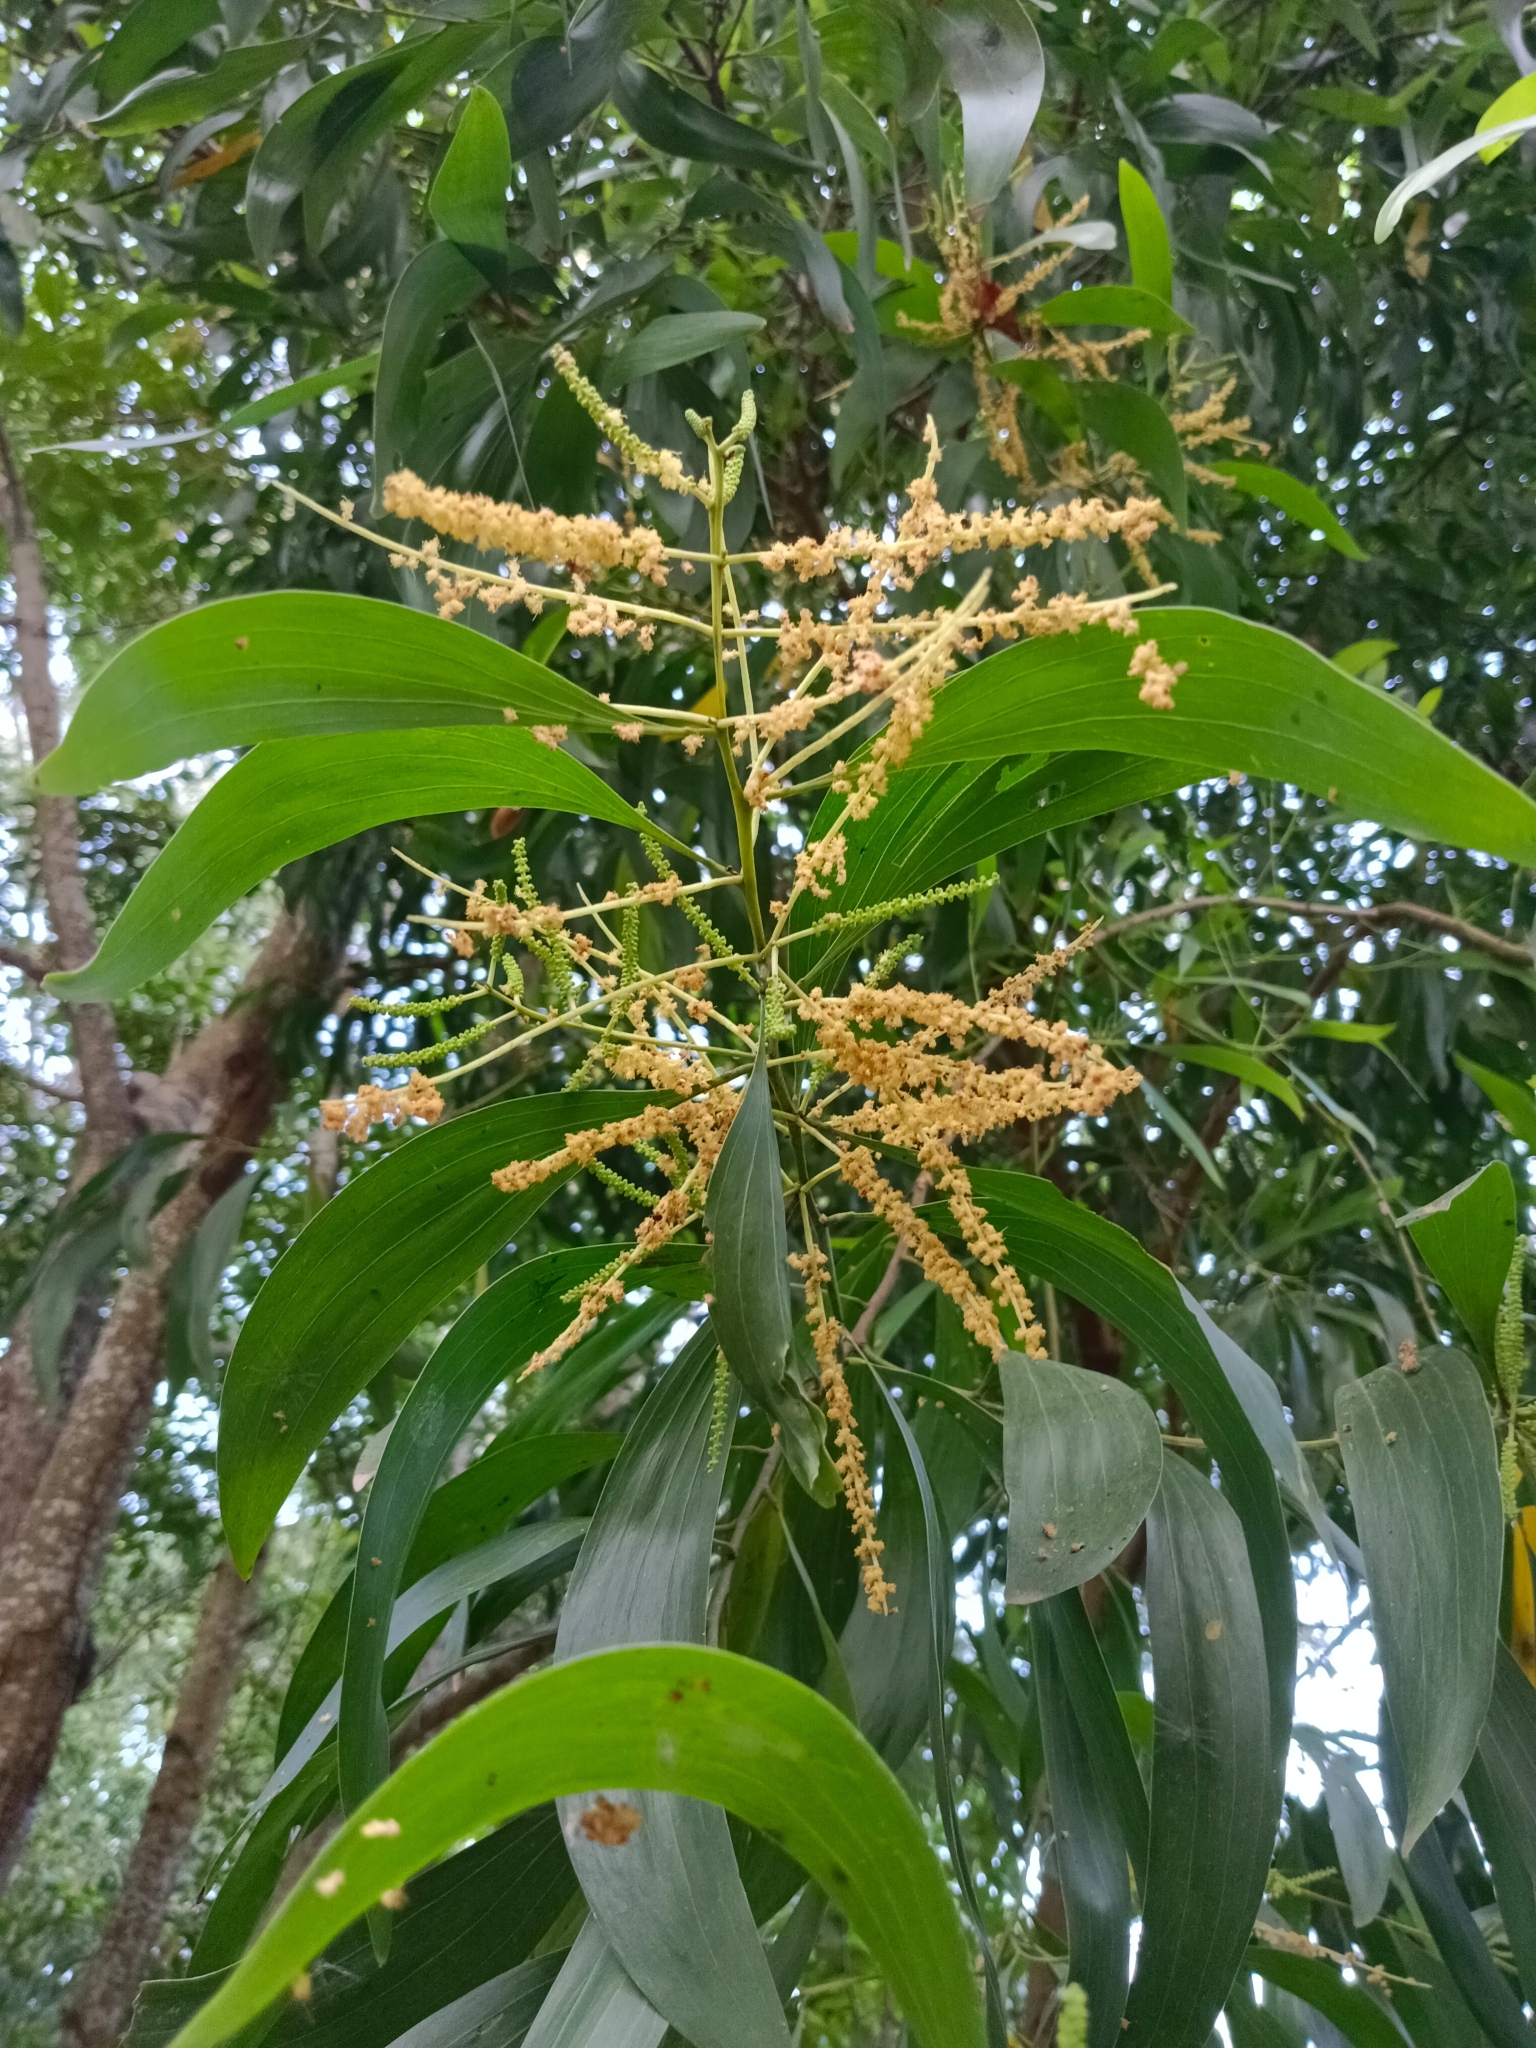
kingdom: Plantae
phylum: Tracheophyta
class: Magnoliopsida
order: Fabales
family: Fabaceae
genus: Acacia
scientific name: Acacia auriculiformis
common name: Earleaf acacia
